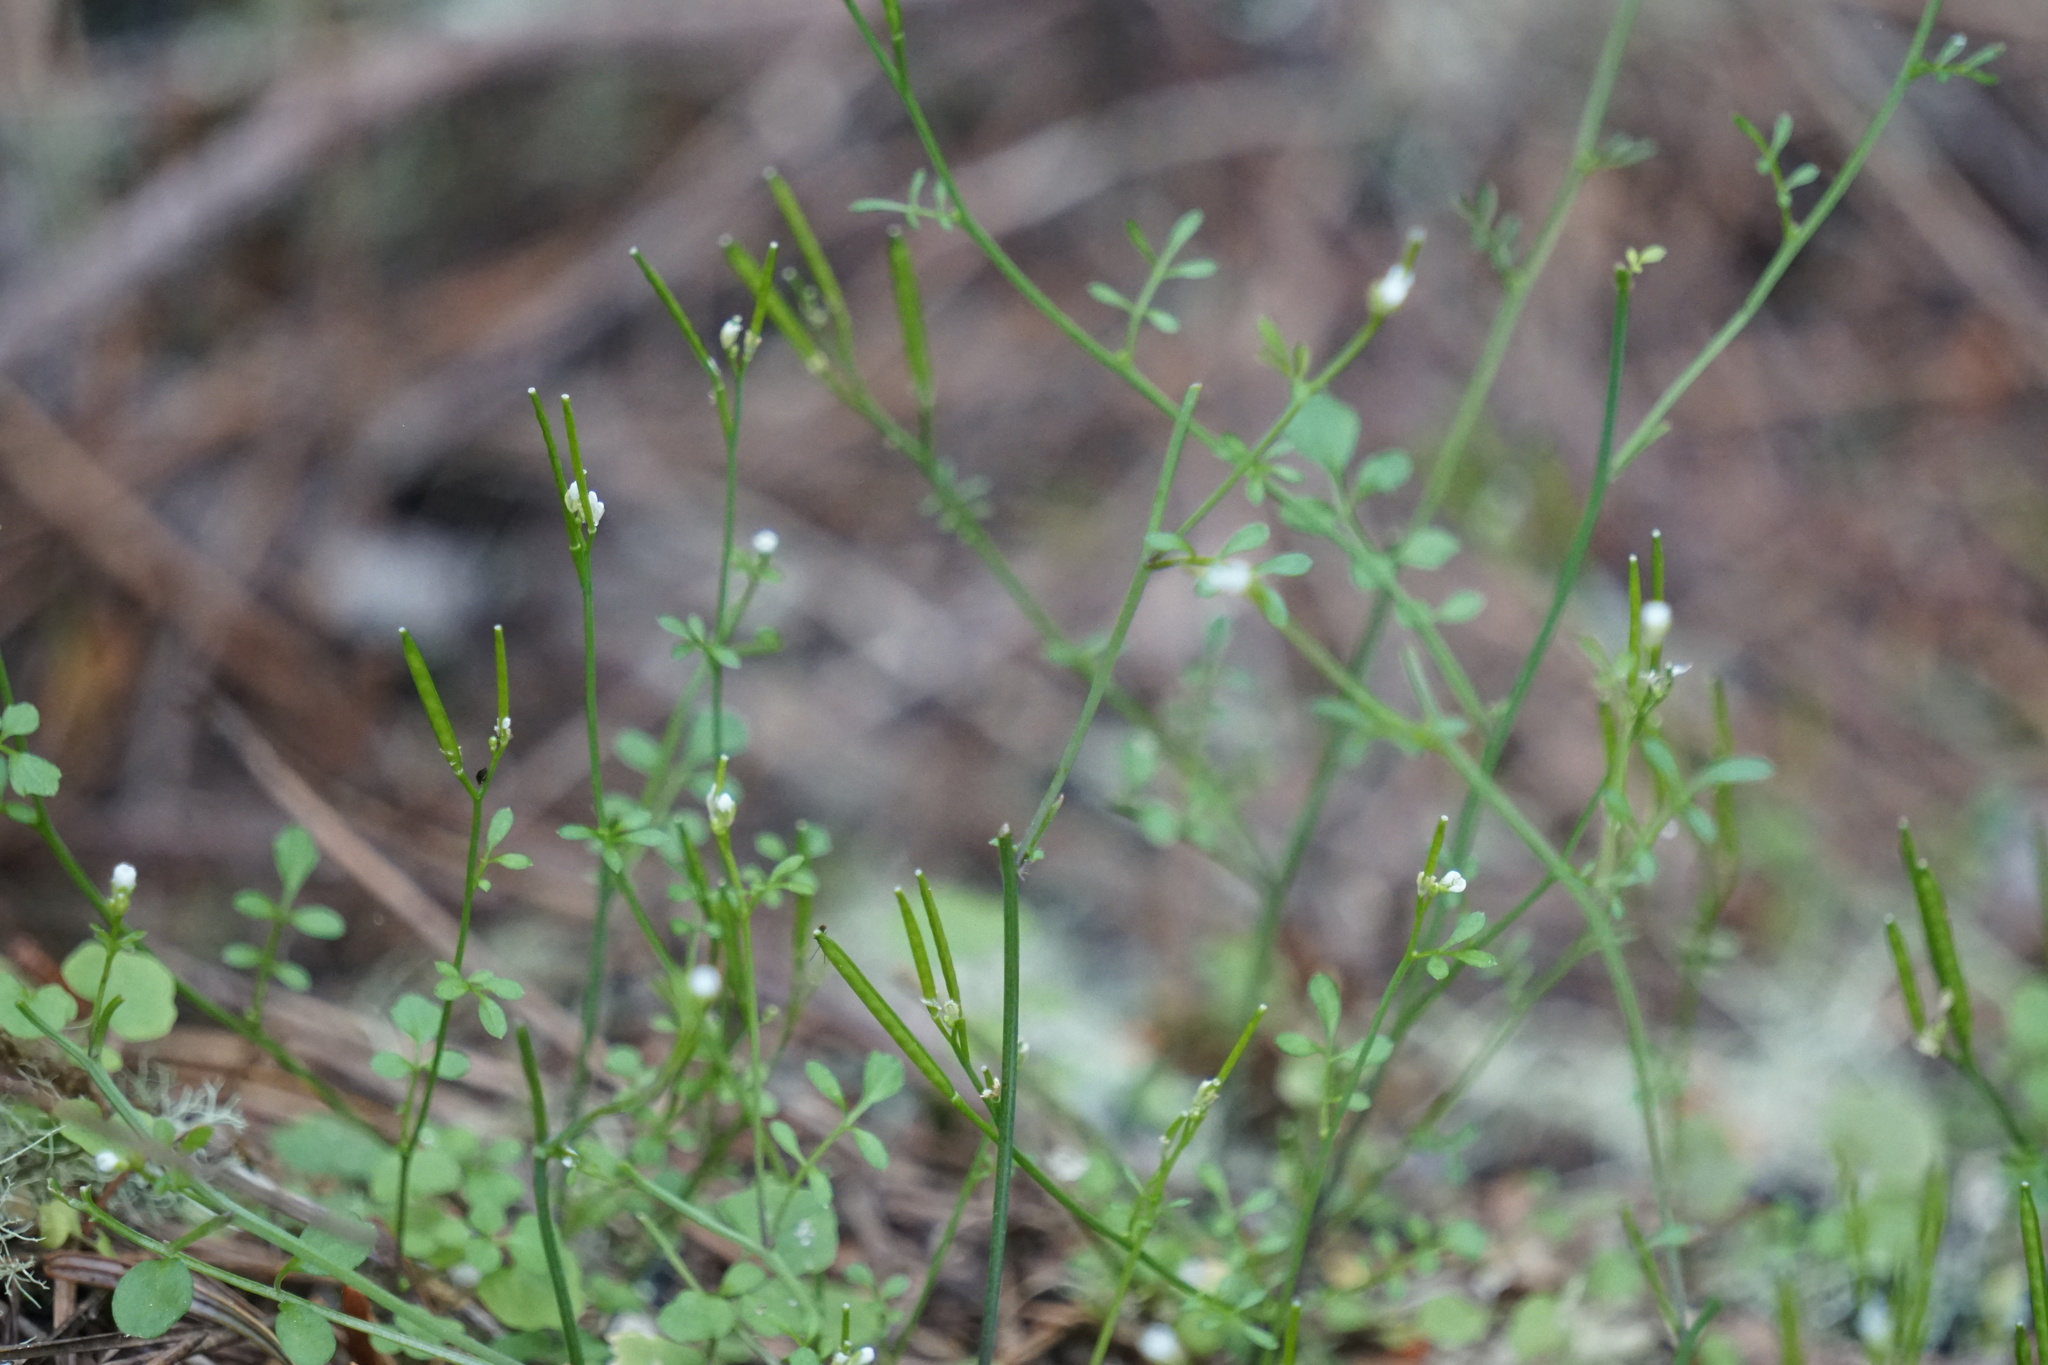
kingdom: Plantae
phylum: Tracheophyta
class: Magnoliopsida
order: Brassicales
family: Brassicaceae
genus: Cardamine
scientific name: Cardamine hirsuta
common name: Hairy bittercress
